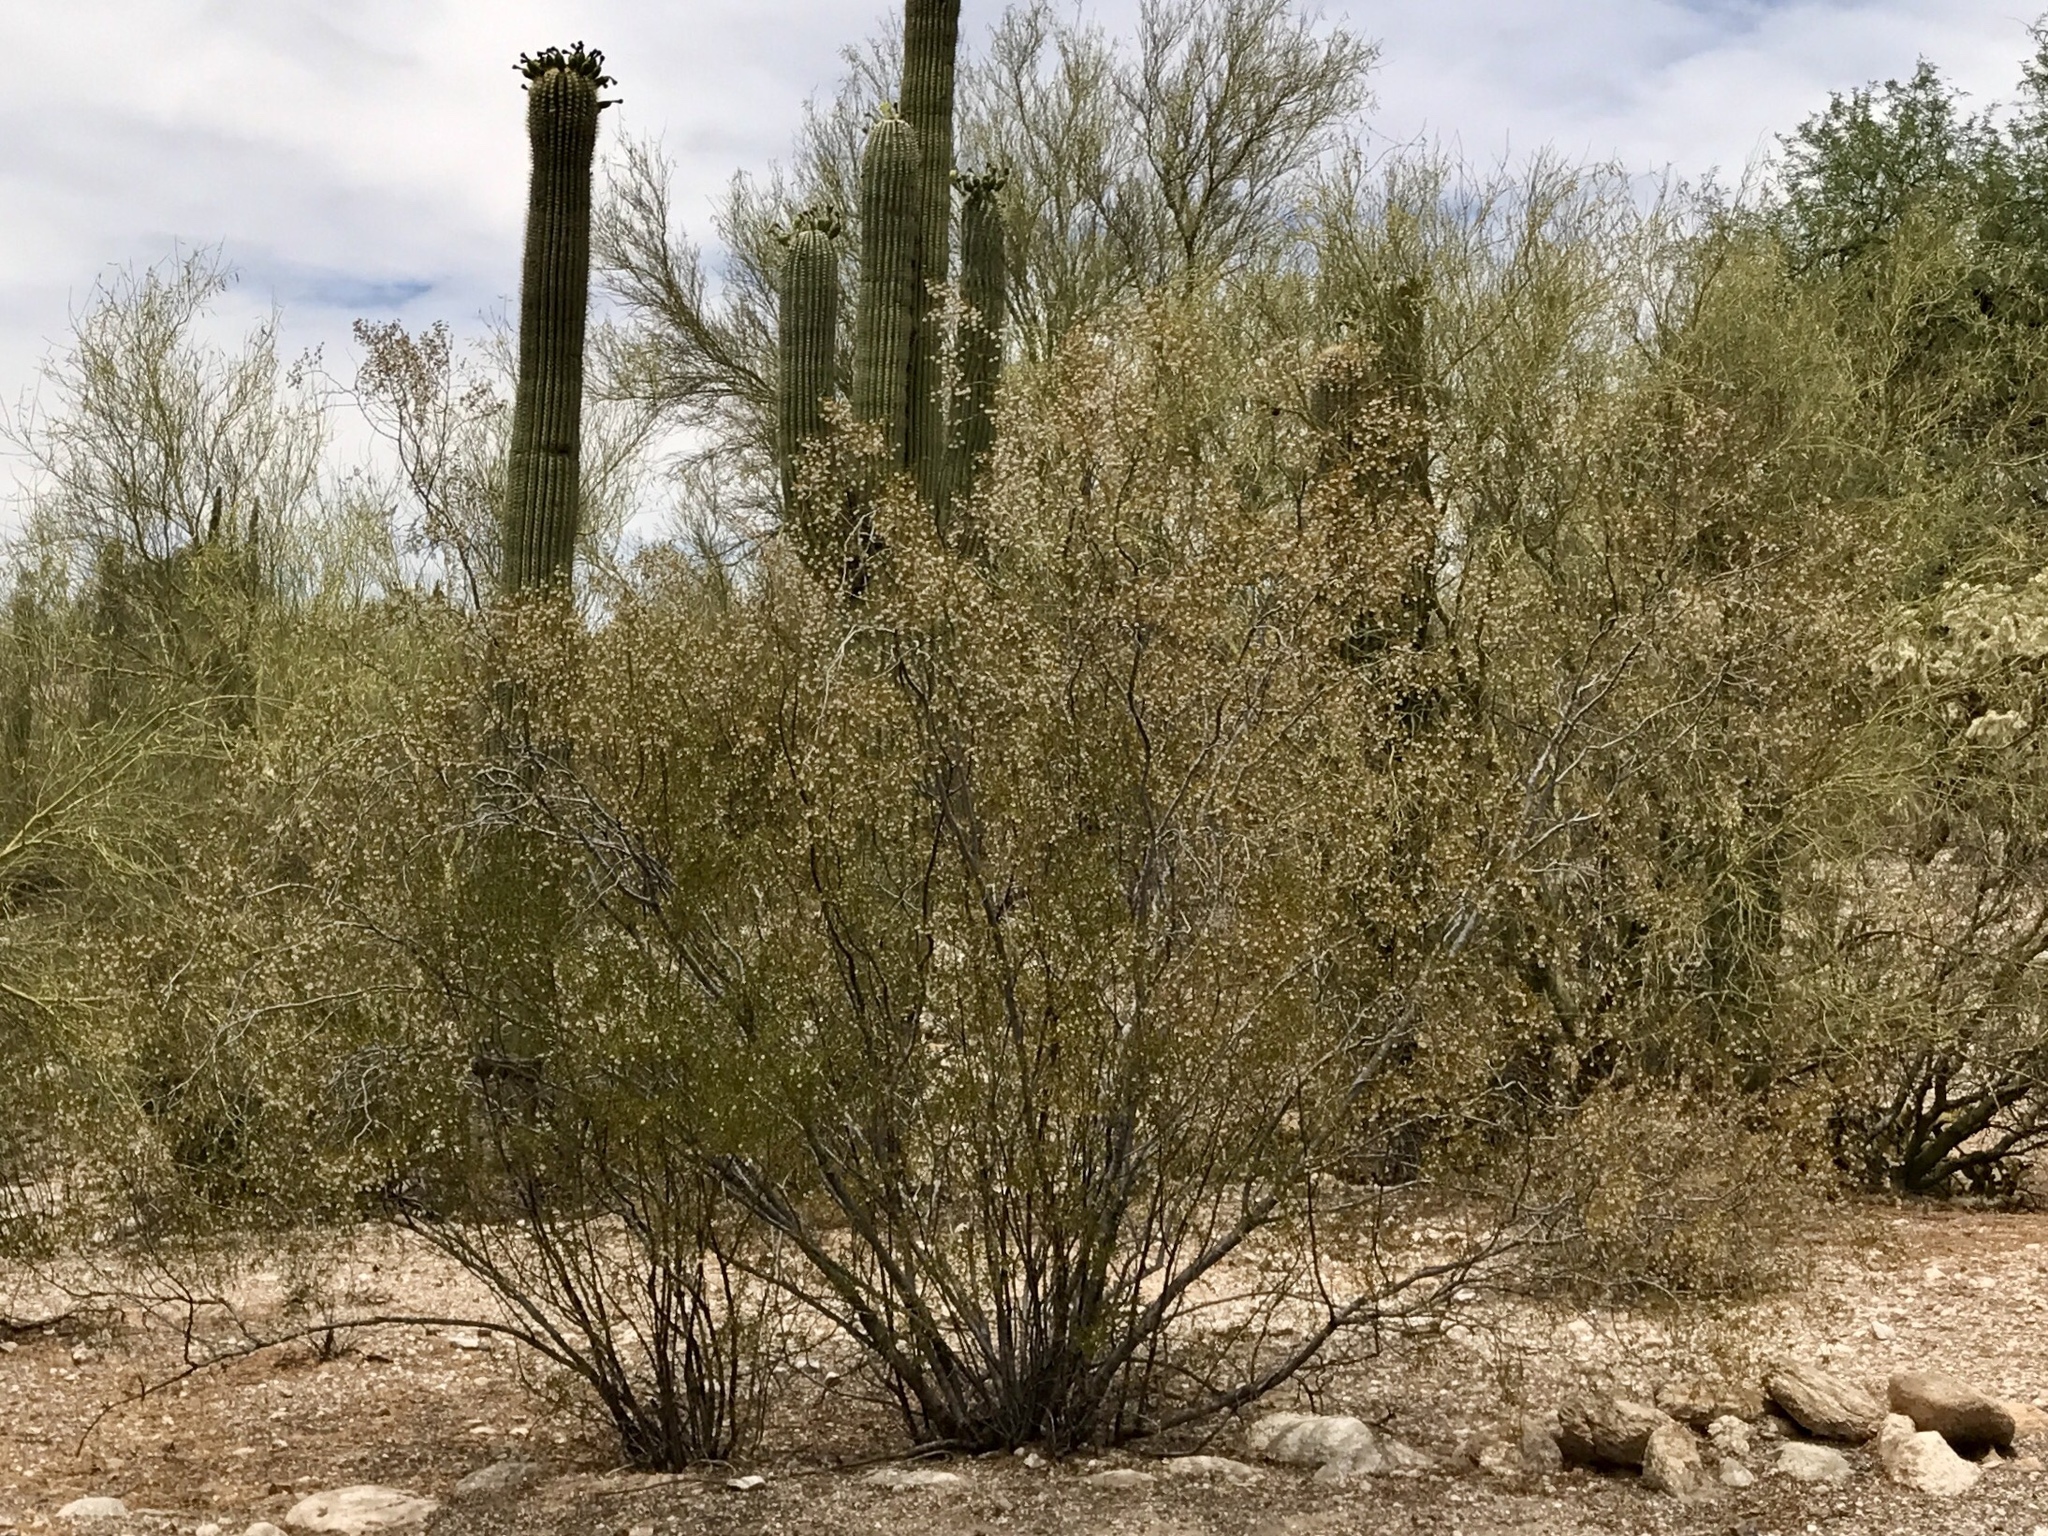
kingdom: Plantae
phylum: Tracheophyta
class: Magnoliopsida
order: Zygophyllales
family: Zygophyllaceae
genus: Larrea
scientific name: Larrea tridentata
